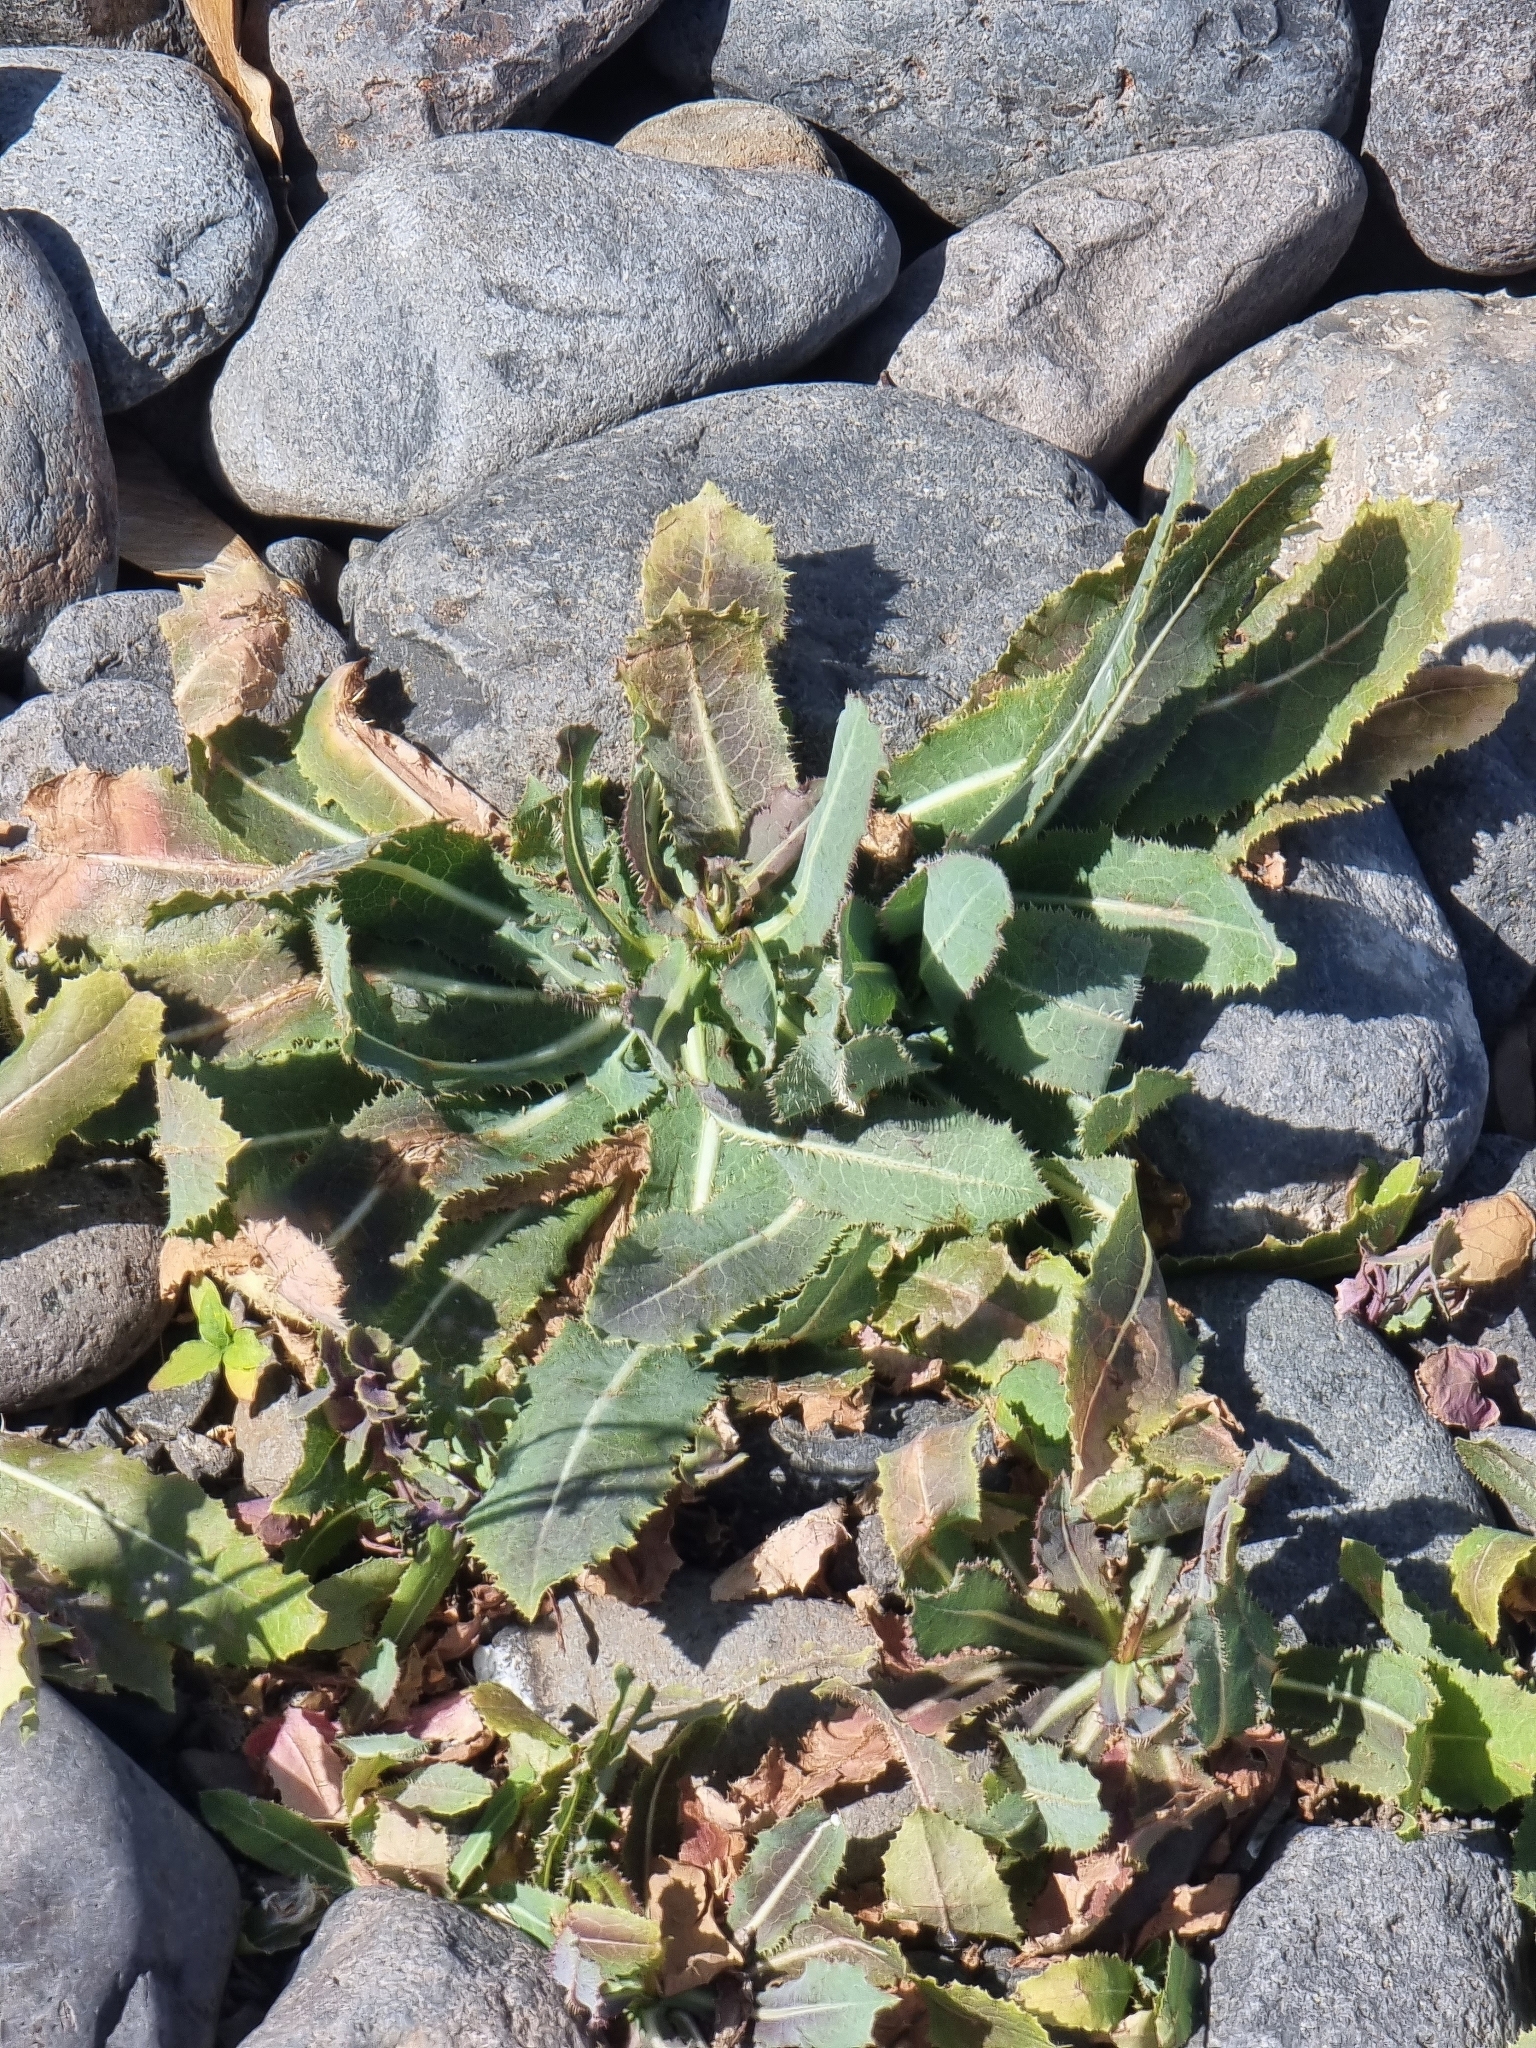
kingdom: Plantae
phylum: Tracheophyta
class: Magnoliopsida
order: Asterales
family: Asteraceae
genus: Lactuca
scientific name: Lactuca serriola
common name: Prickly lettuce
